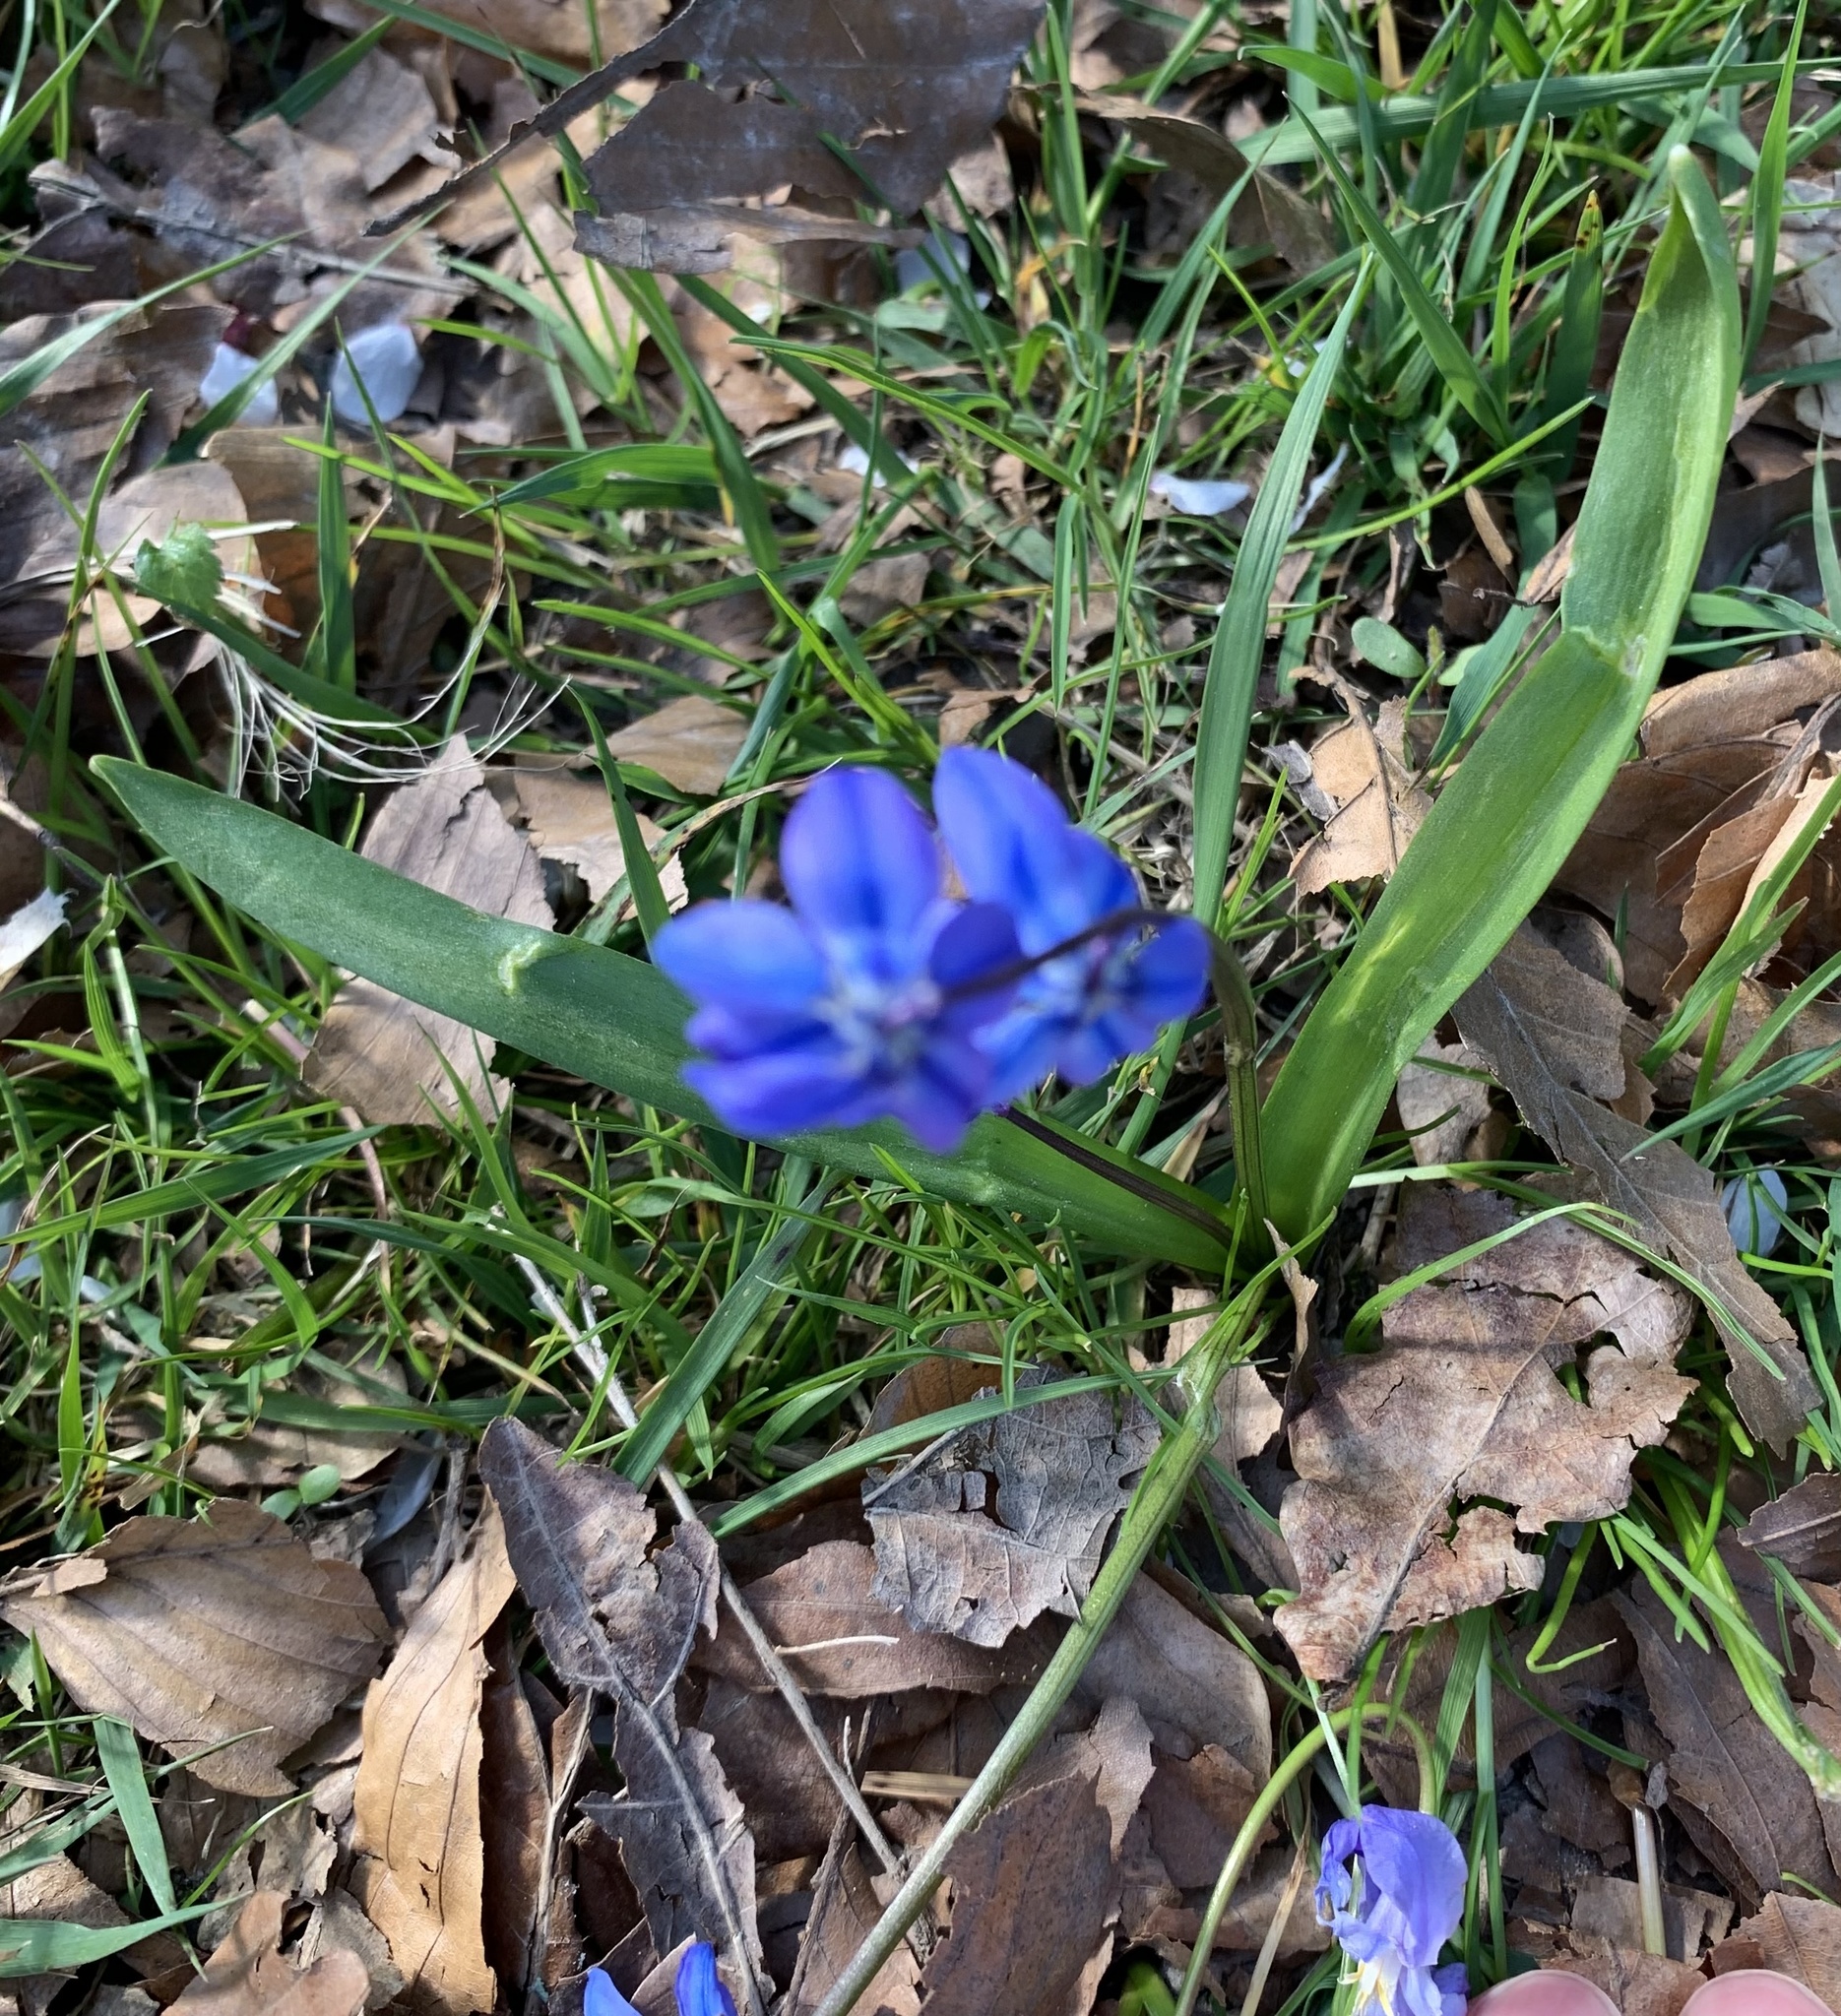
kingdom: Plantae
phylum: Tracheophyta
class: Liliopsida
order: Asparagales
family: Asparagaceae
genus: Scilla
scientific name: Scilla siberica
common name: Siberian squill
